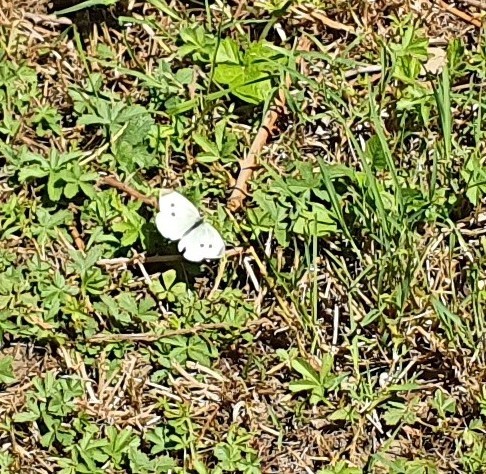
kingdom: Animalia
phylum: Arthropoda
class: Insecta
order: Lepidoptera
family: Pieridae
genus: Pieris
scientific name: Pieris napi
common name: Green-veined white
